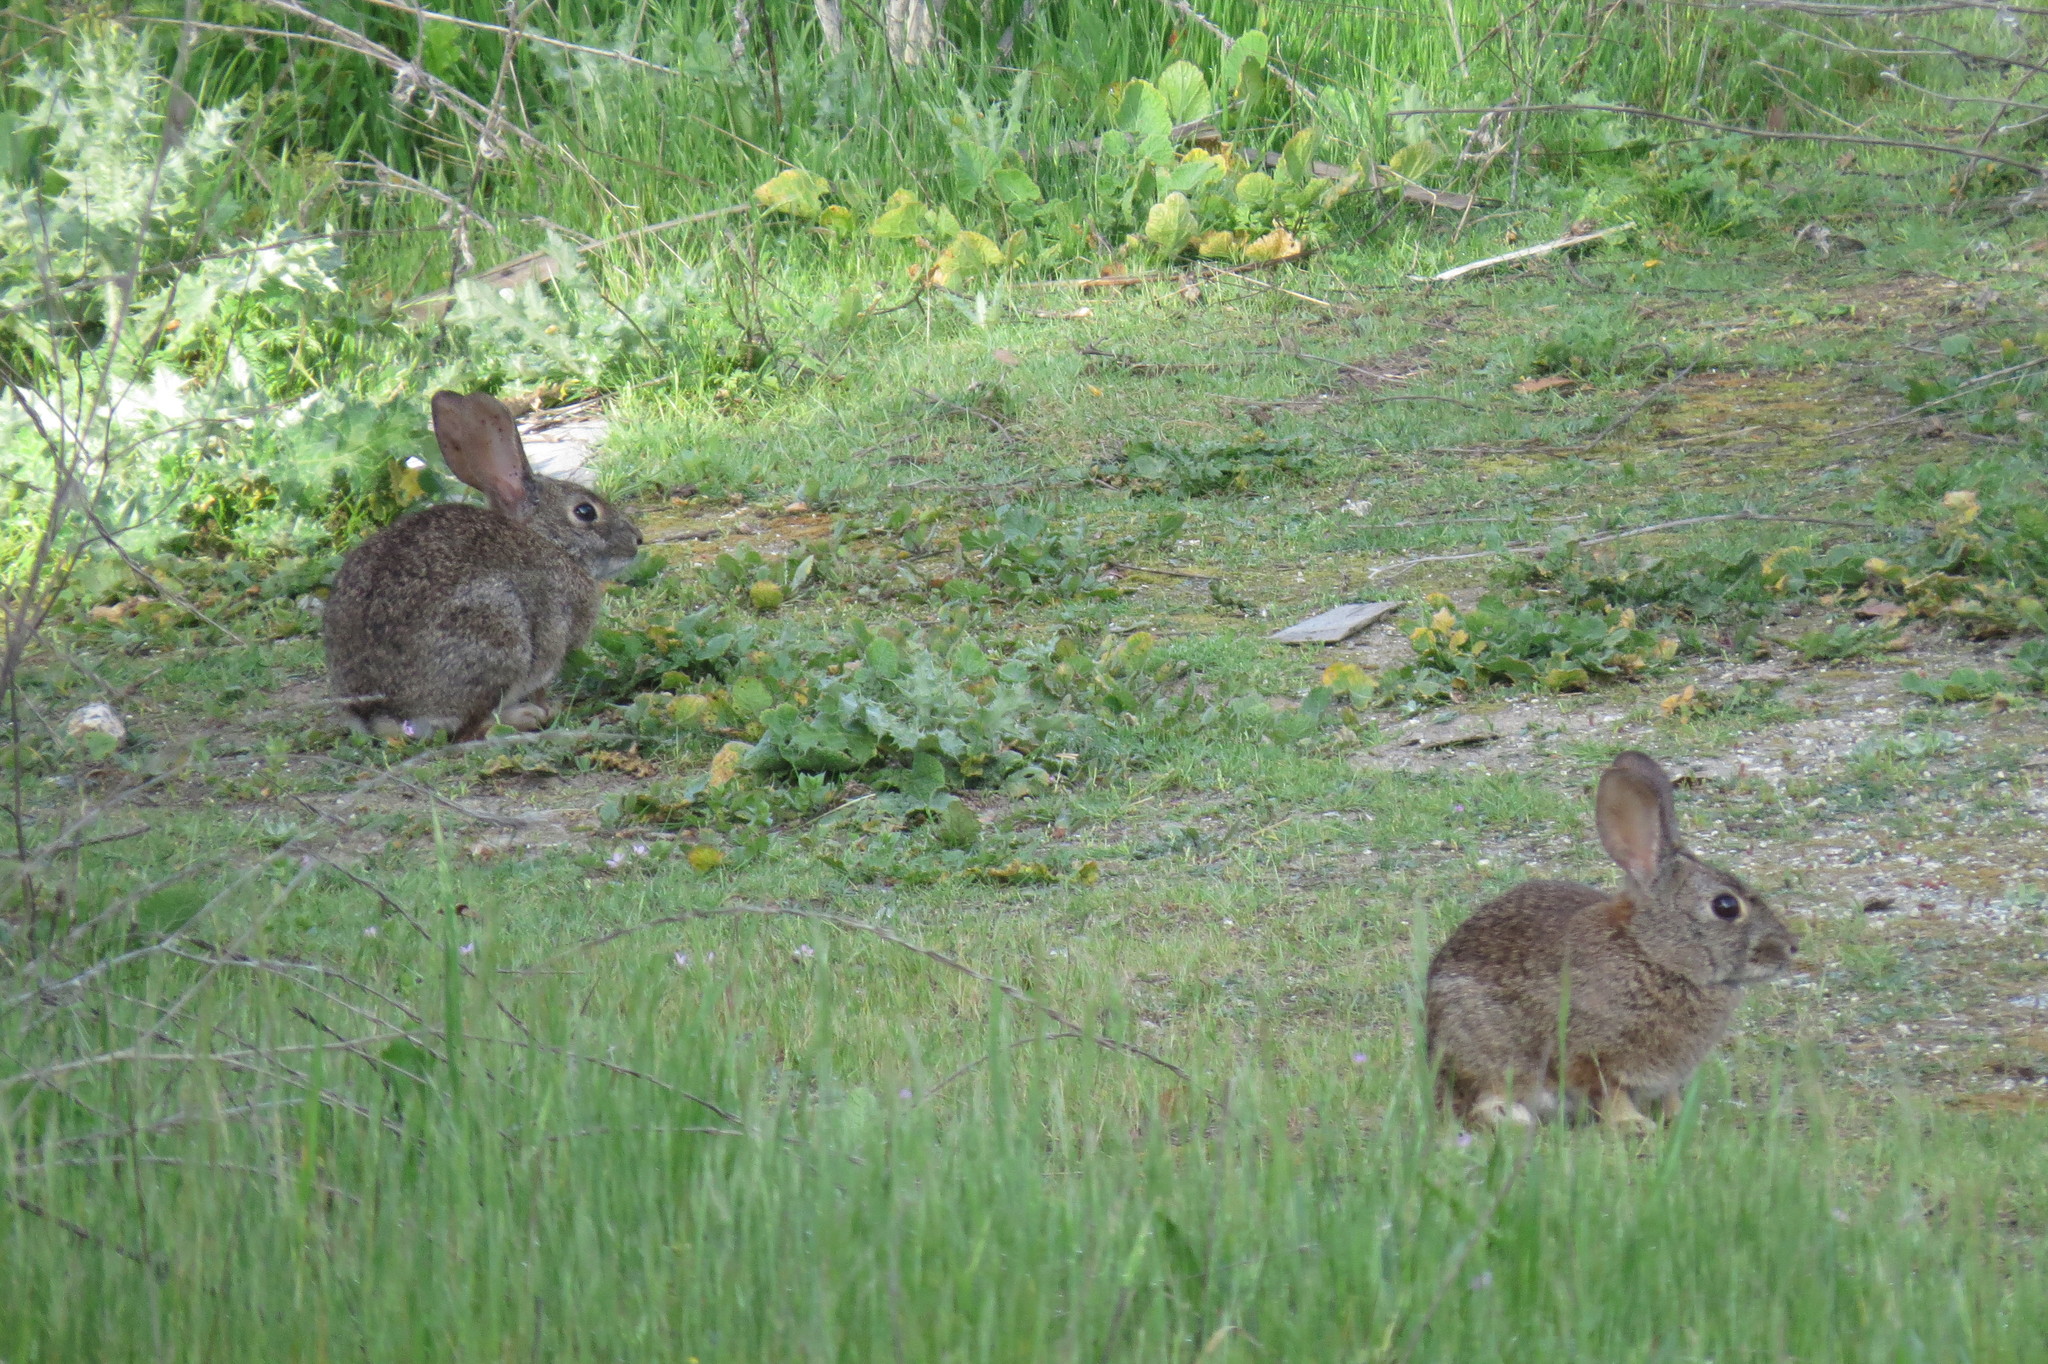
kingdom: Animalia
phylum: Chordata
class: Mammalia
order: Lagomorpha
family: Leporidae
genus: Sylvilagus
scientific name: Sylvilagus bachmani
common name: Brush rabbit
